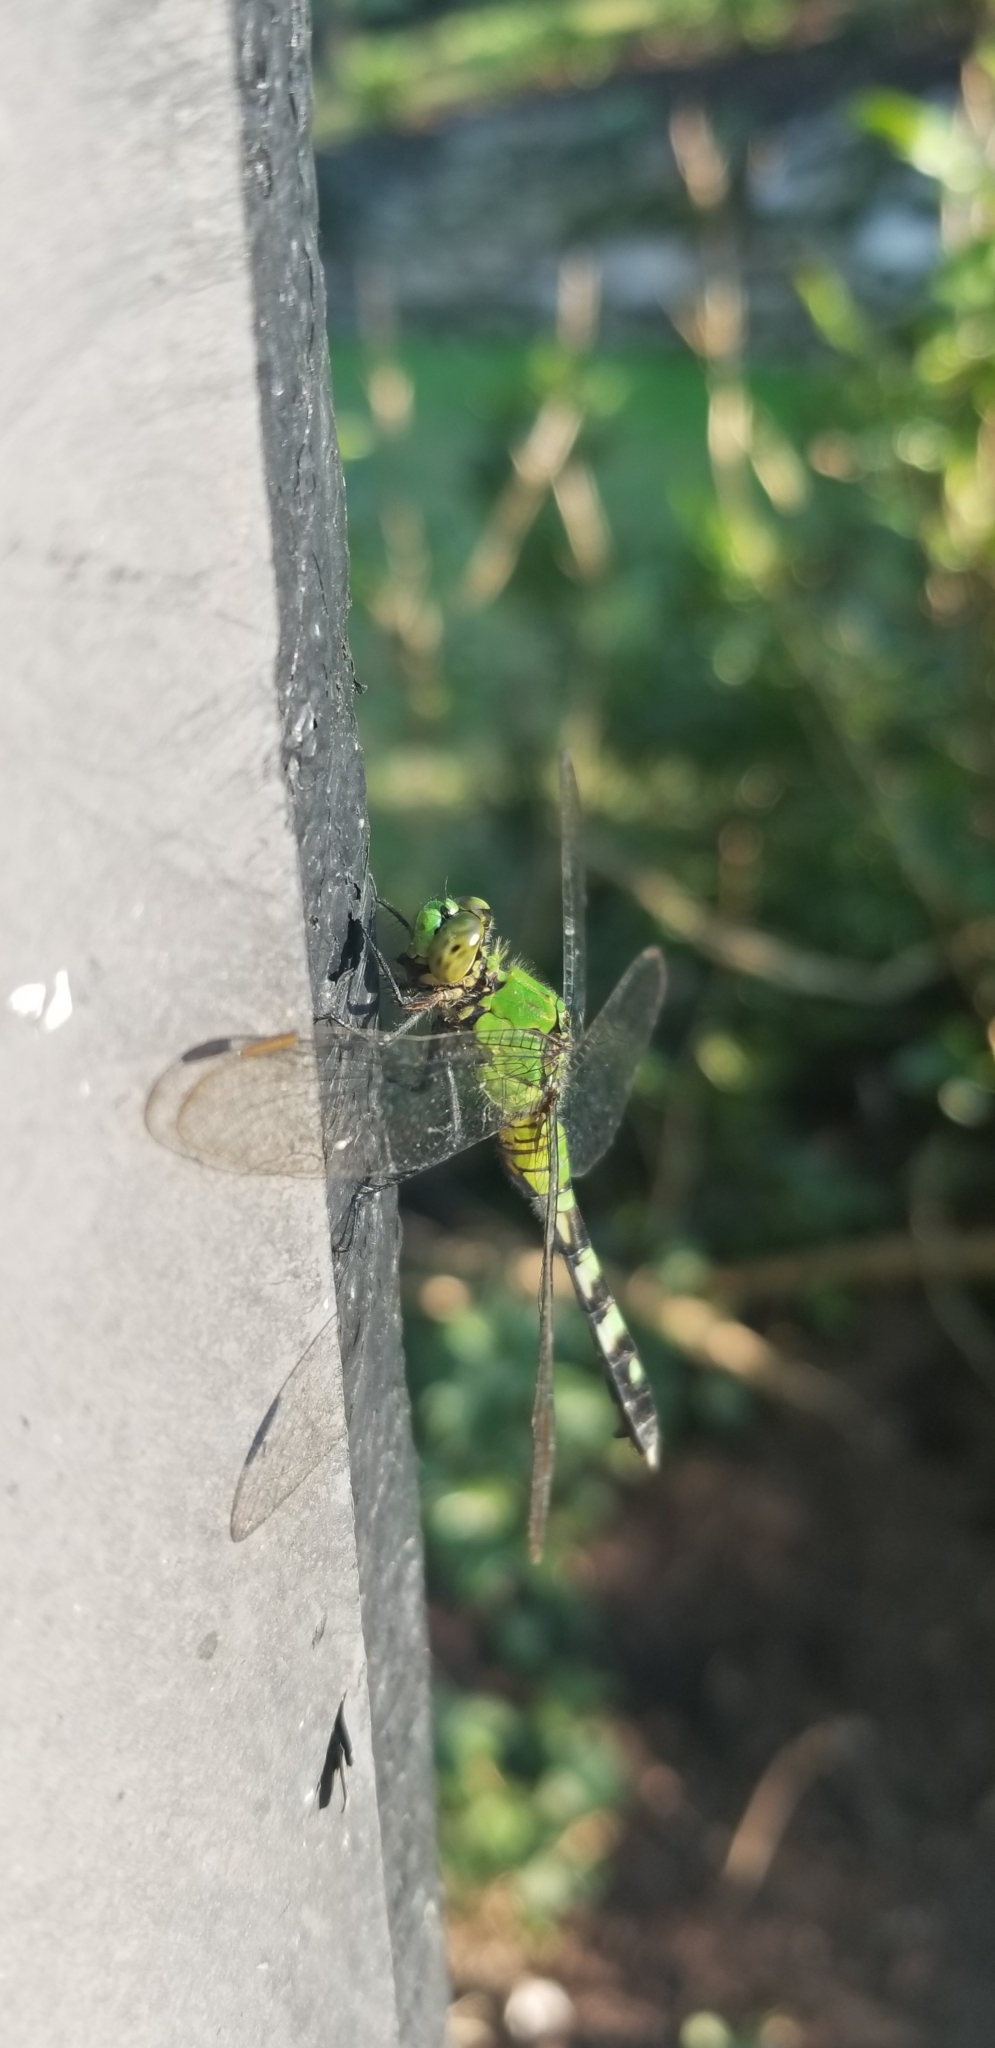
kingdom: Animalia
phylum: Arthropoda
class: Insecta
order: Odonata
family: Libellulidae
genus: Erythemis
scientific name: Erythemis simplicicollis
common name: Eastern pondhawk
